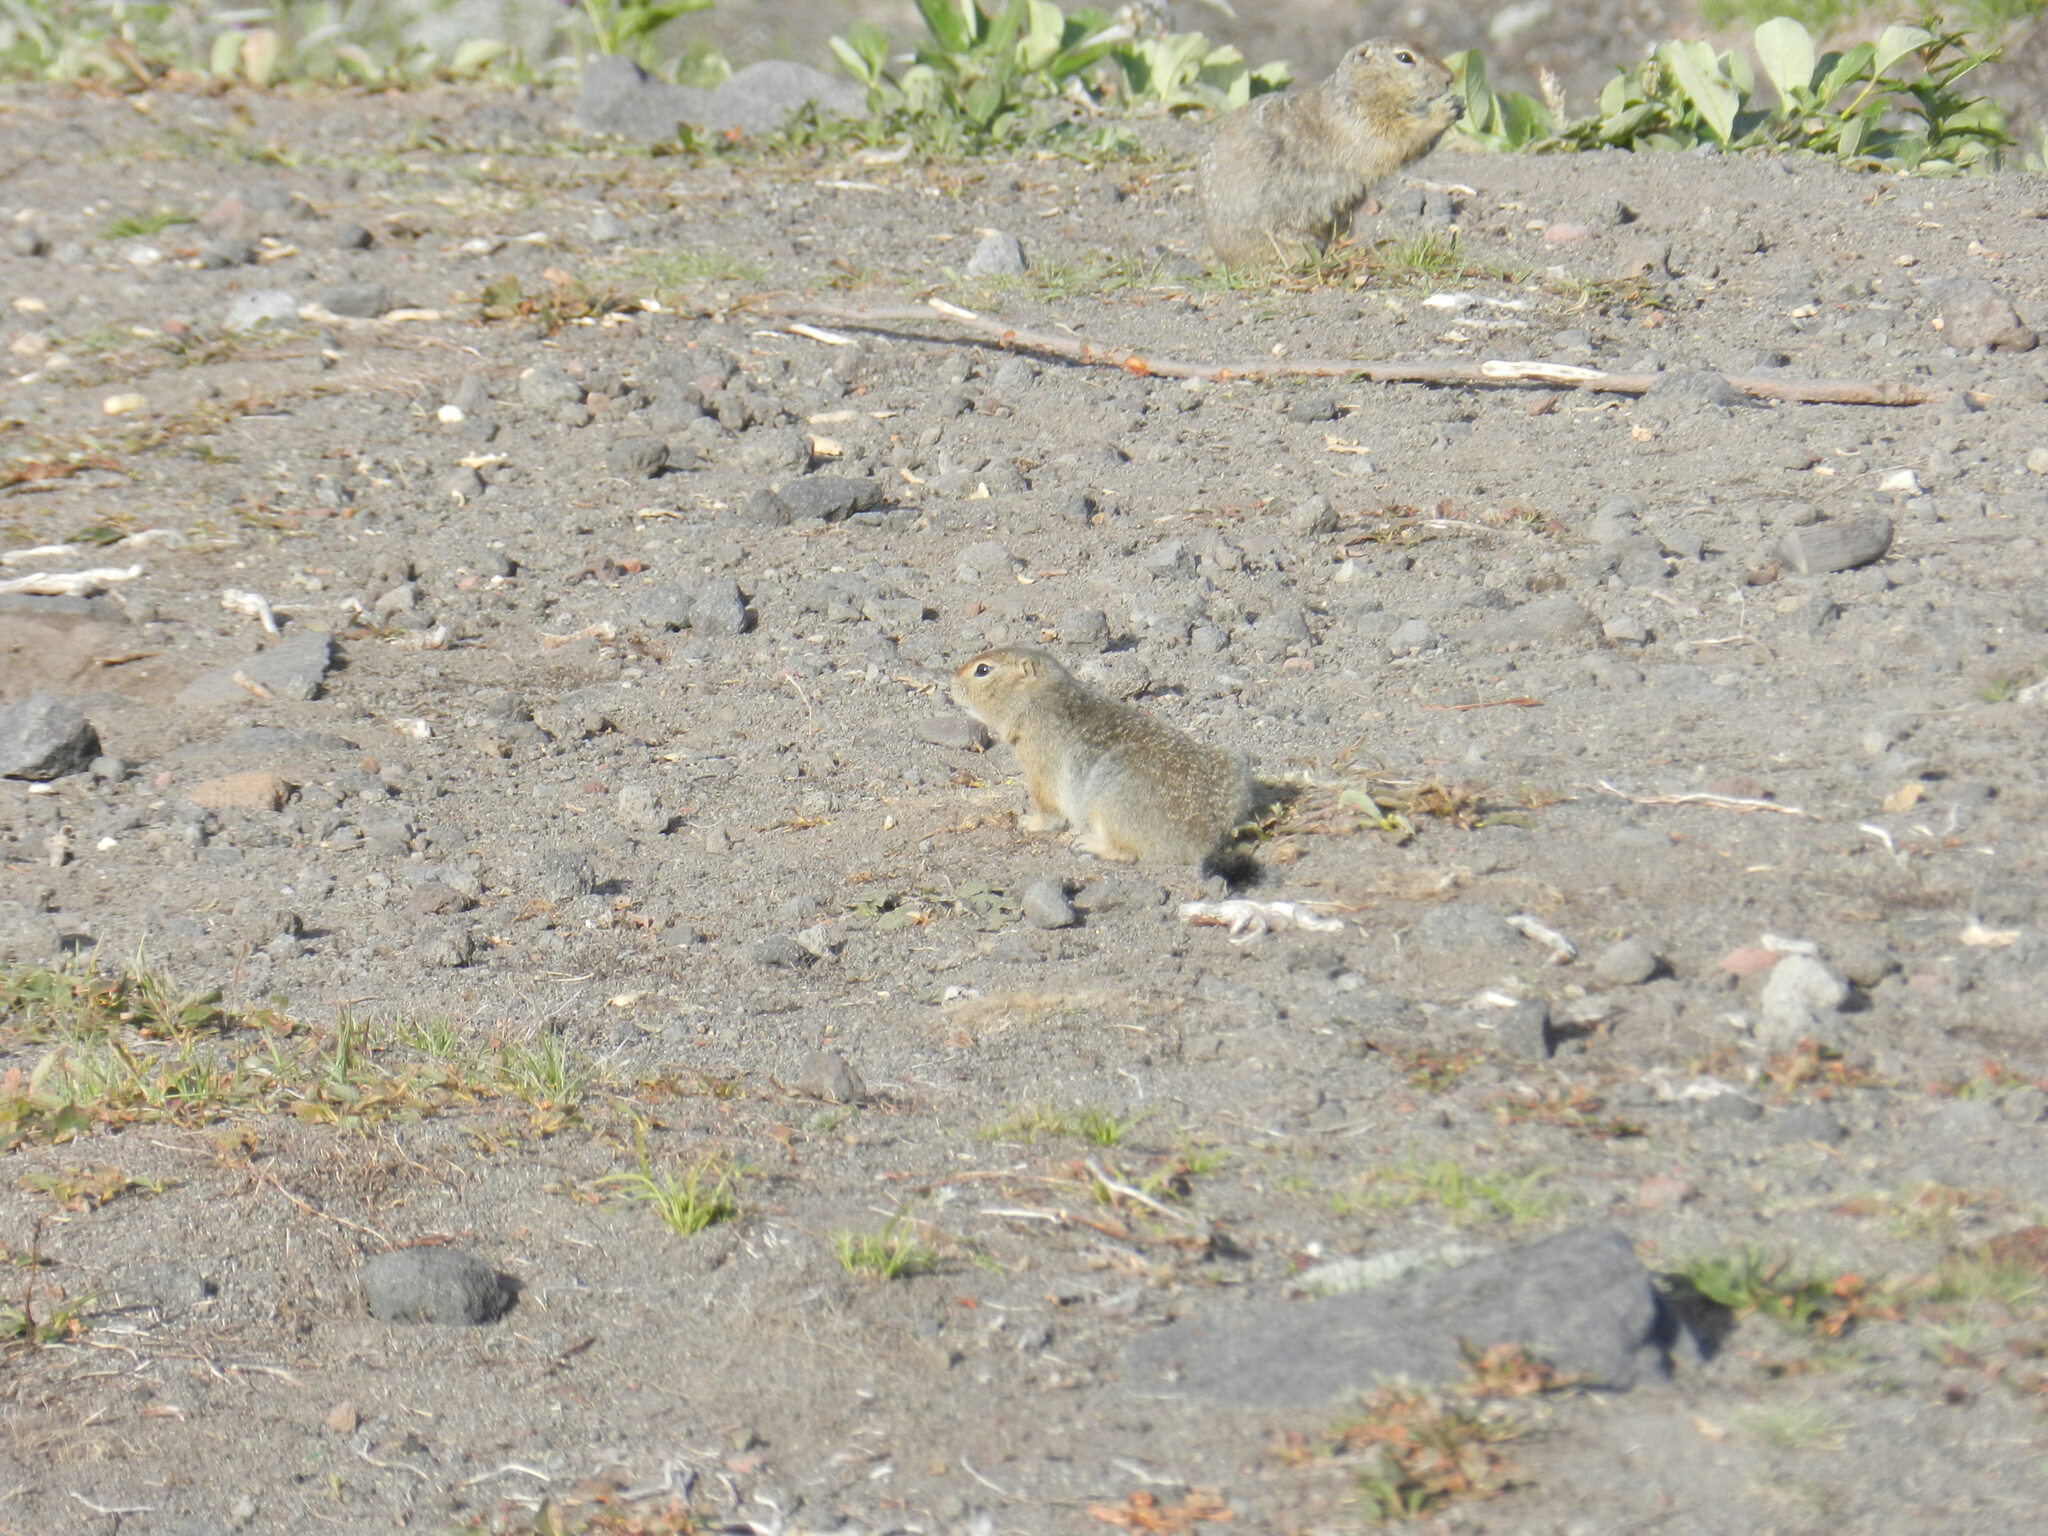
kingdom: Animalia
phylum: Chordata
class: Mammalia
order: Rodentia
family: Sciuridae
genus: Urocitellus
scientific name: Urocitellus parryii
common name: Arctic ground squirrel
